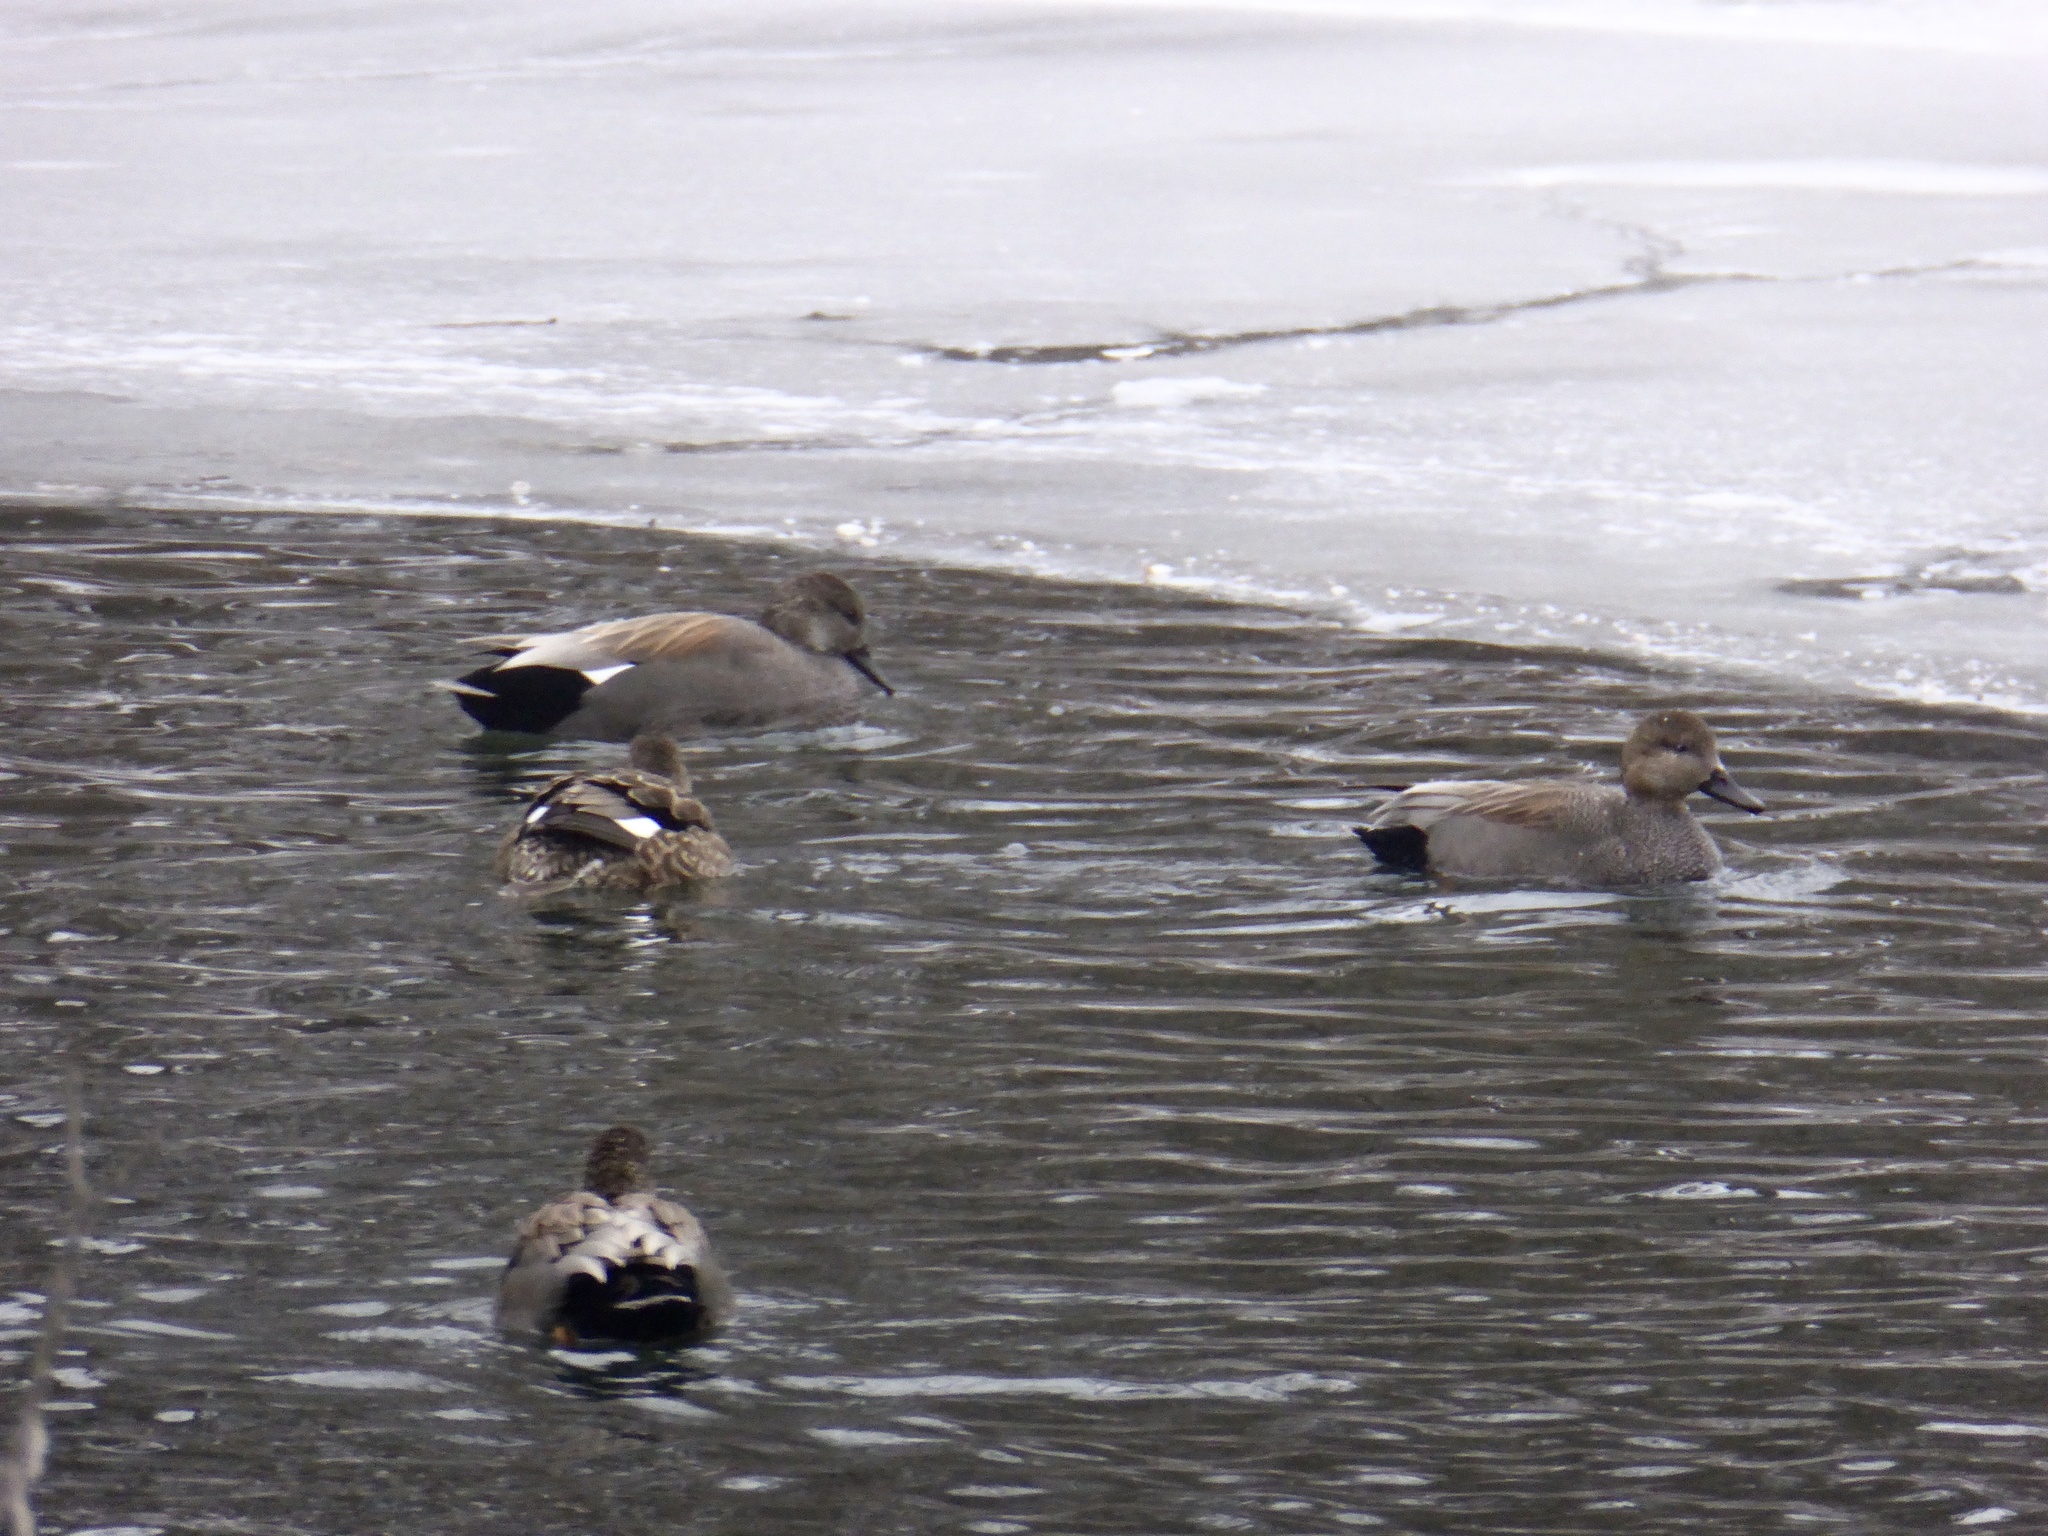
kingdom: Animalia
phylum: Chordata
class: Aves
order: Anseriformes
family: Anatidae
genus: Mareca
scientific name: Mareca strepera
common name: Gadwall
